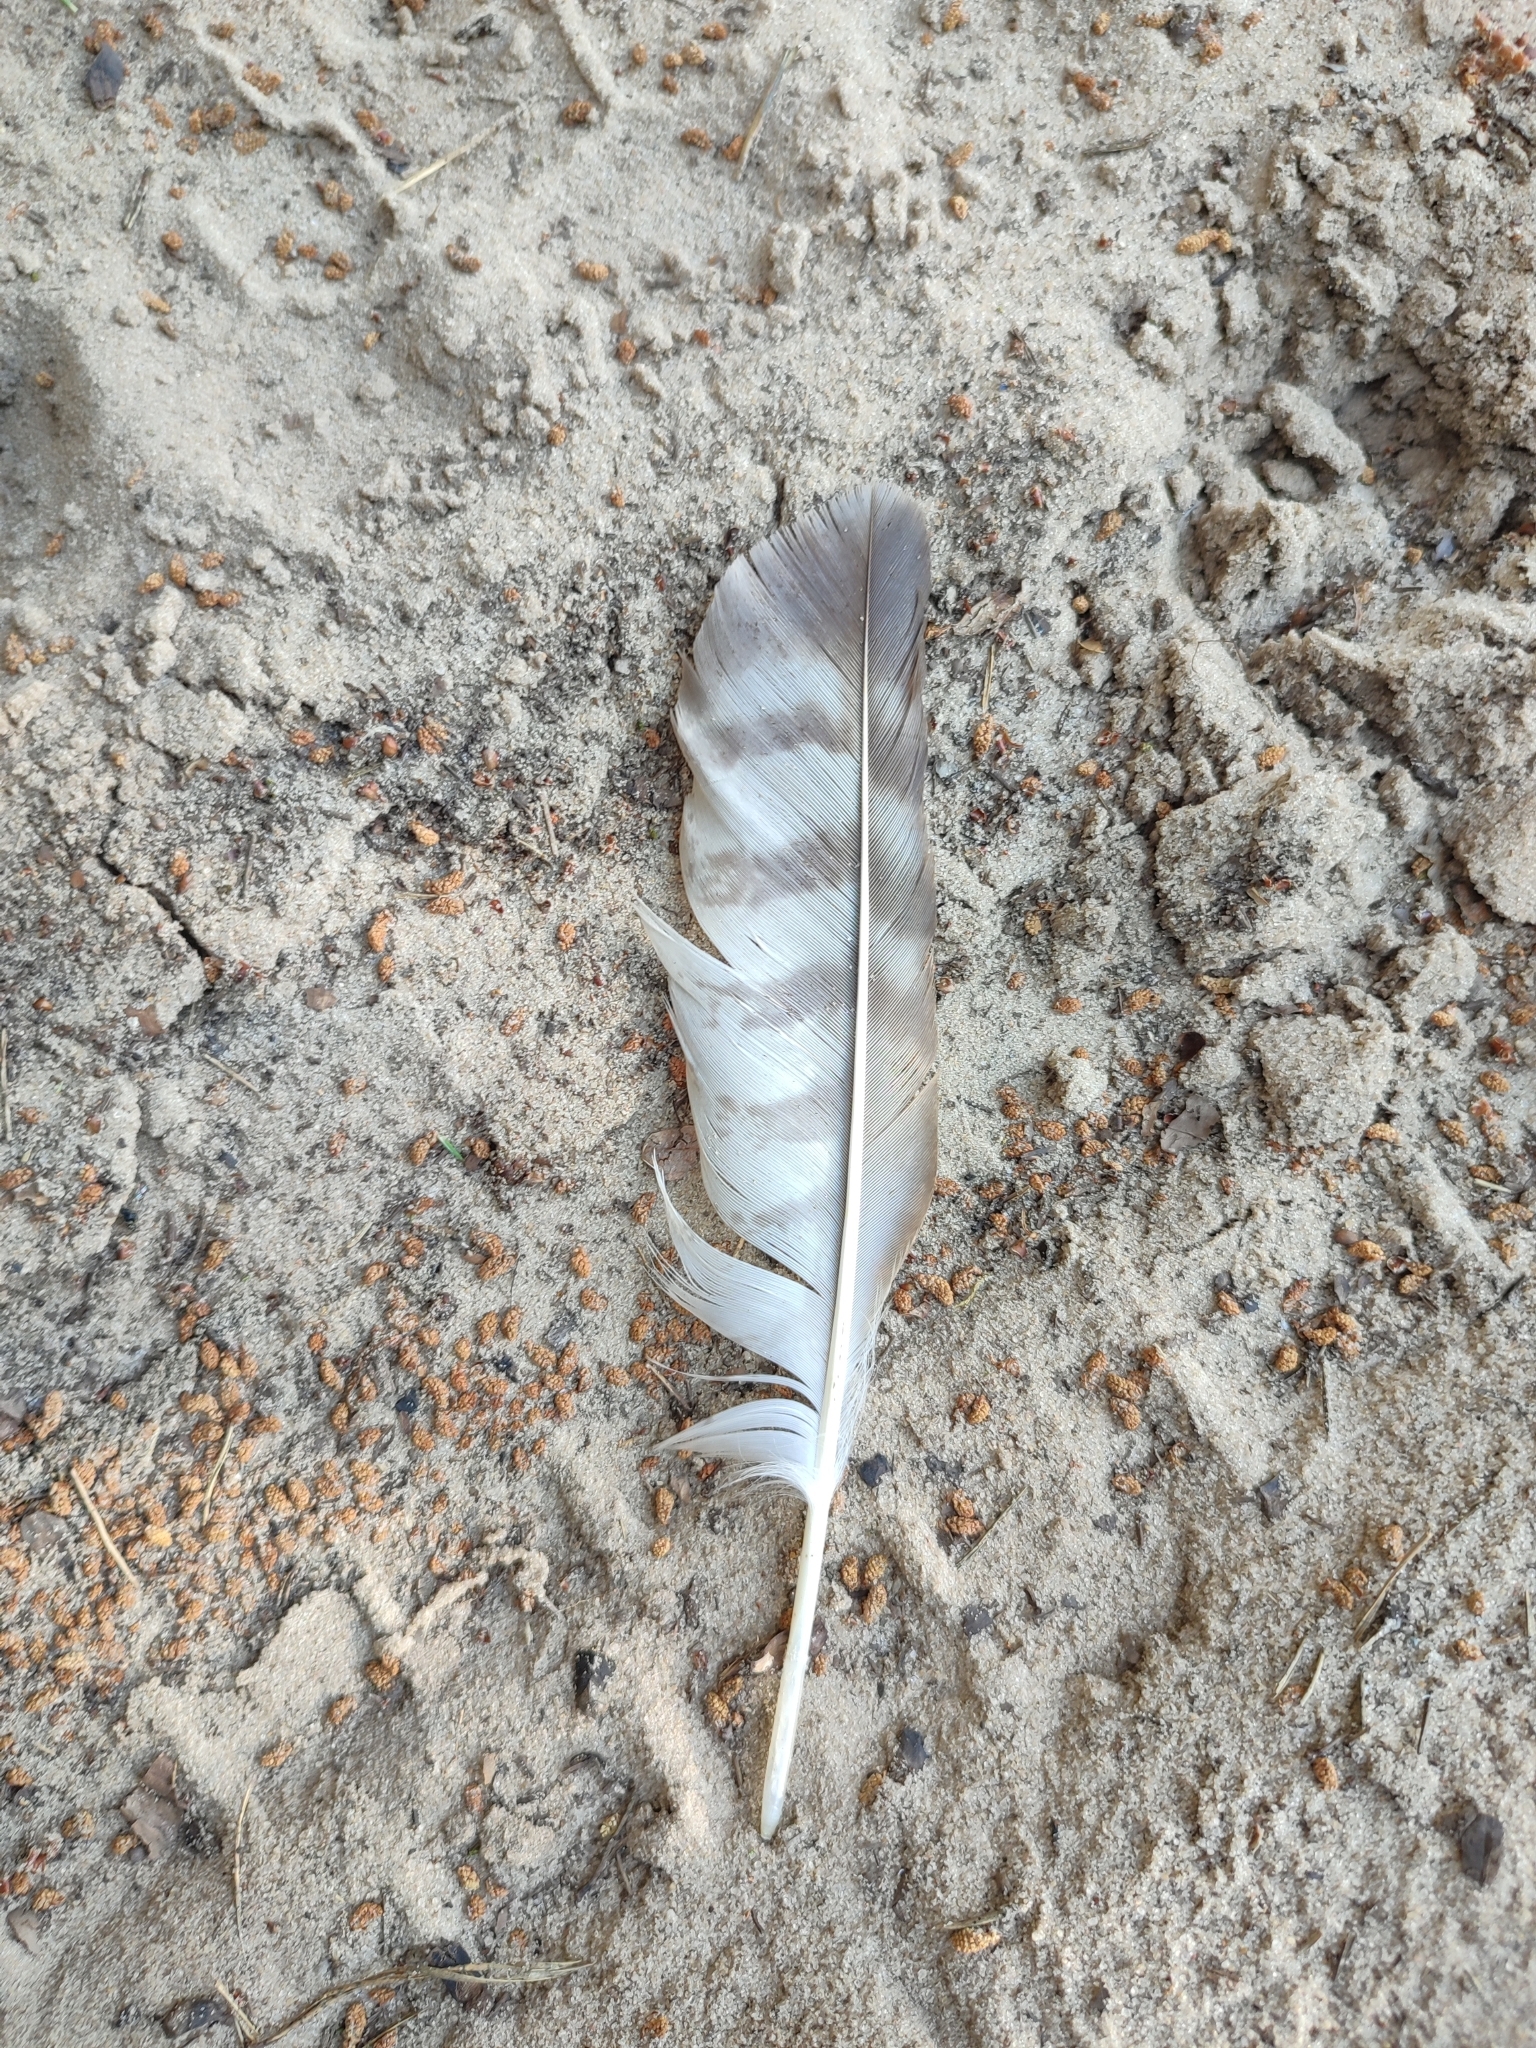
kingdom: Animalia
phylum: Chordata
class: Aves
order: Accipitriformes
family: Accipitridae
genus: Buteo
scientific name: Buteo buteo
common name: Common buzzard
